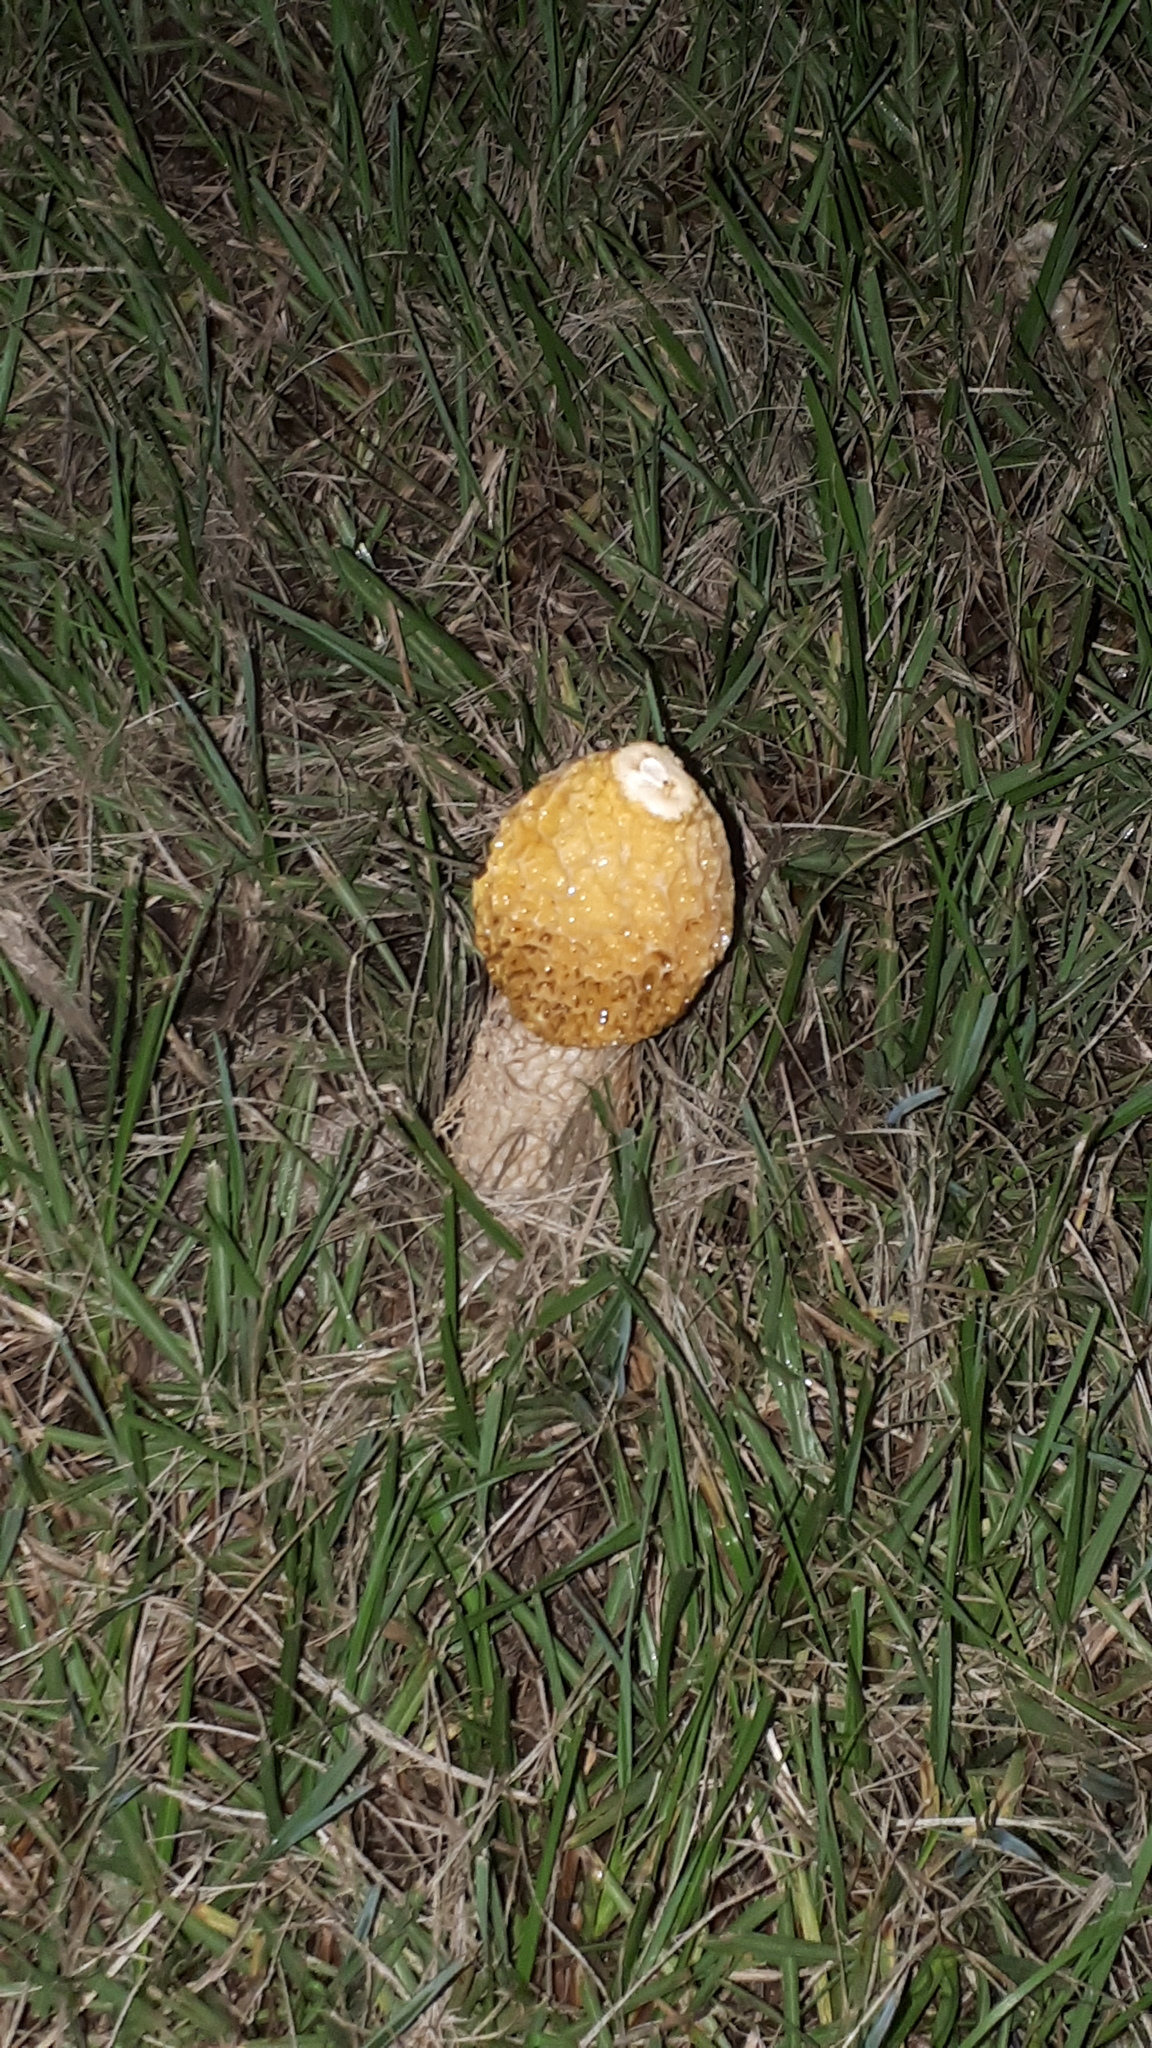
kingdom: Fungi
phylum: Basidiomycota
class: Agaricomycetes
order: Phallales
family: Phallaceae
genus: Phallus
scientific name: Phallus multicolor
